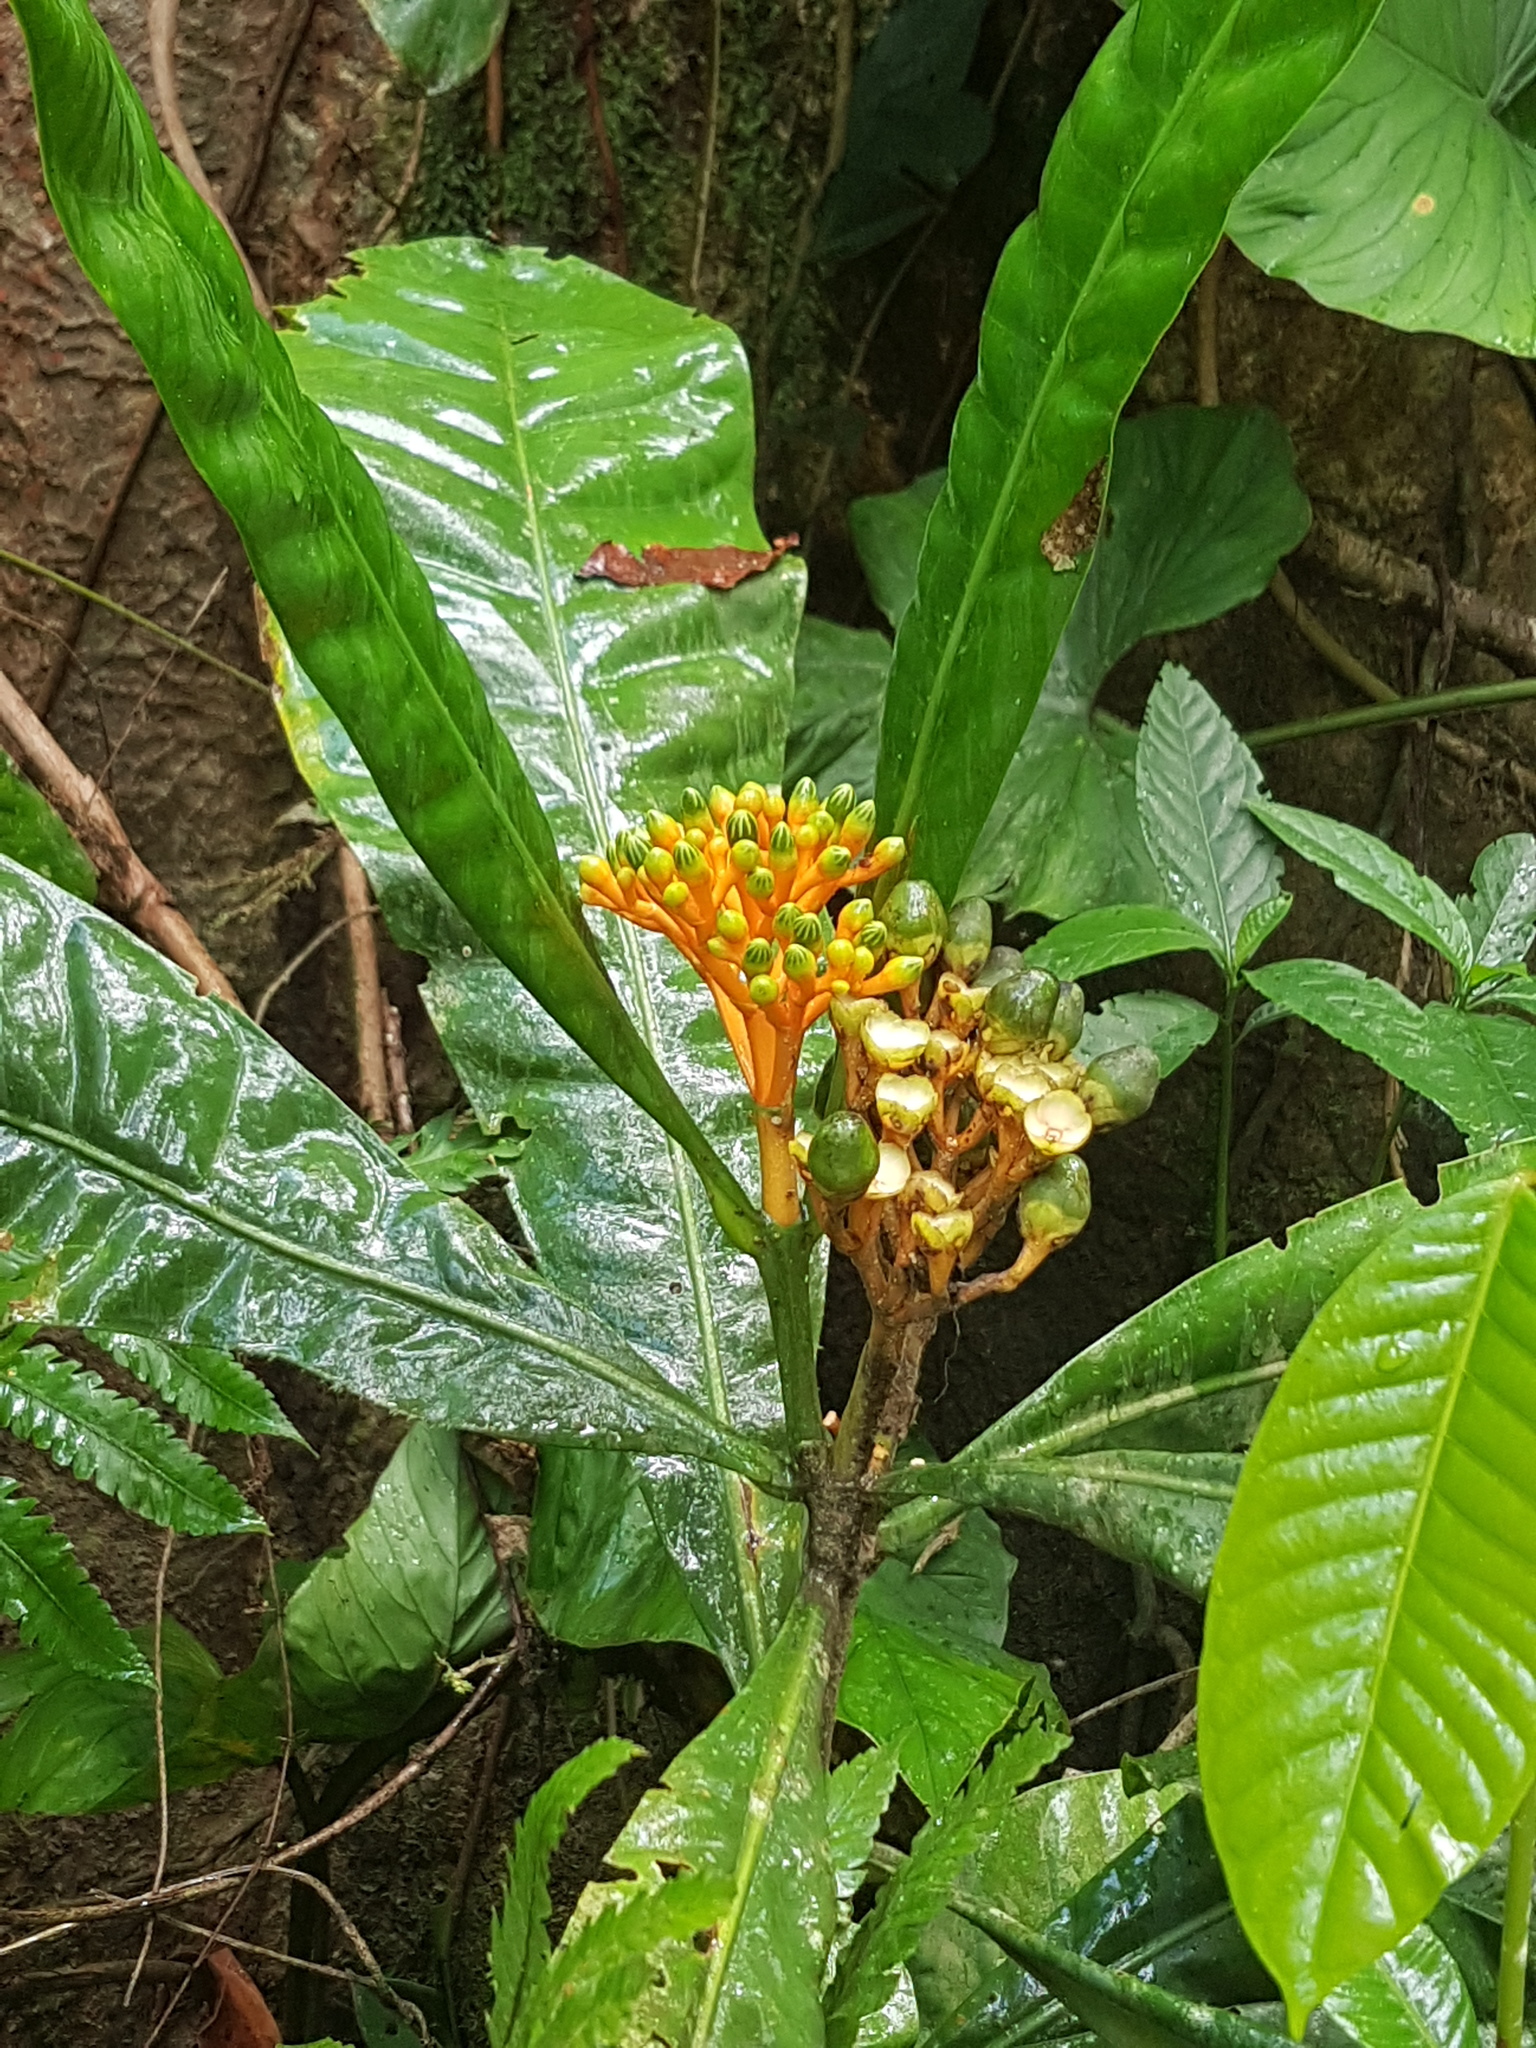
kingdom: Plantae
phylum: Tracheophyta
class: Magnoliopsida
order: Gentianales
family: Gentianaceae
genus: Potalia
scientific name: Potalia resinifera
